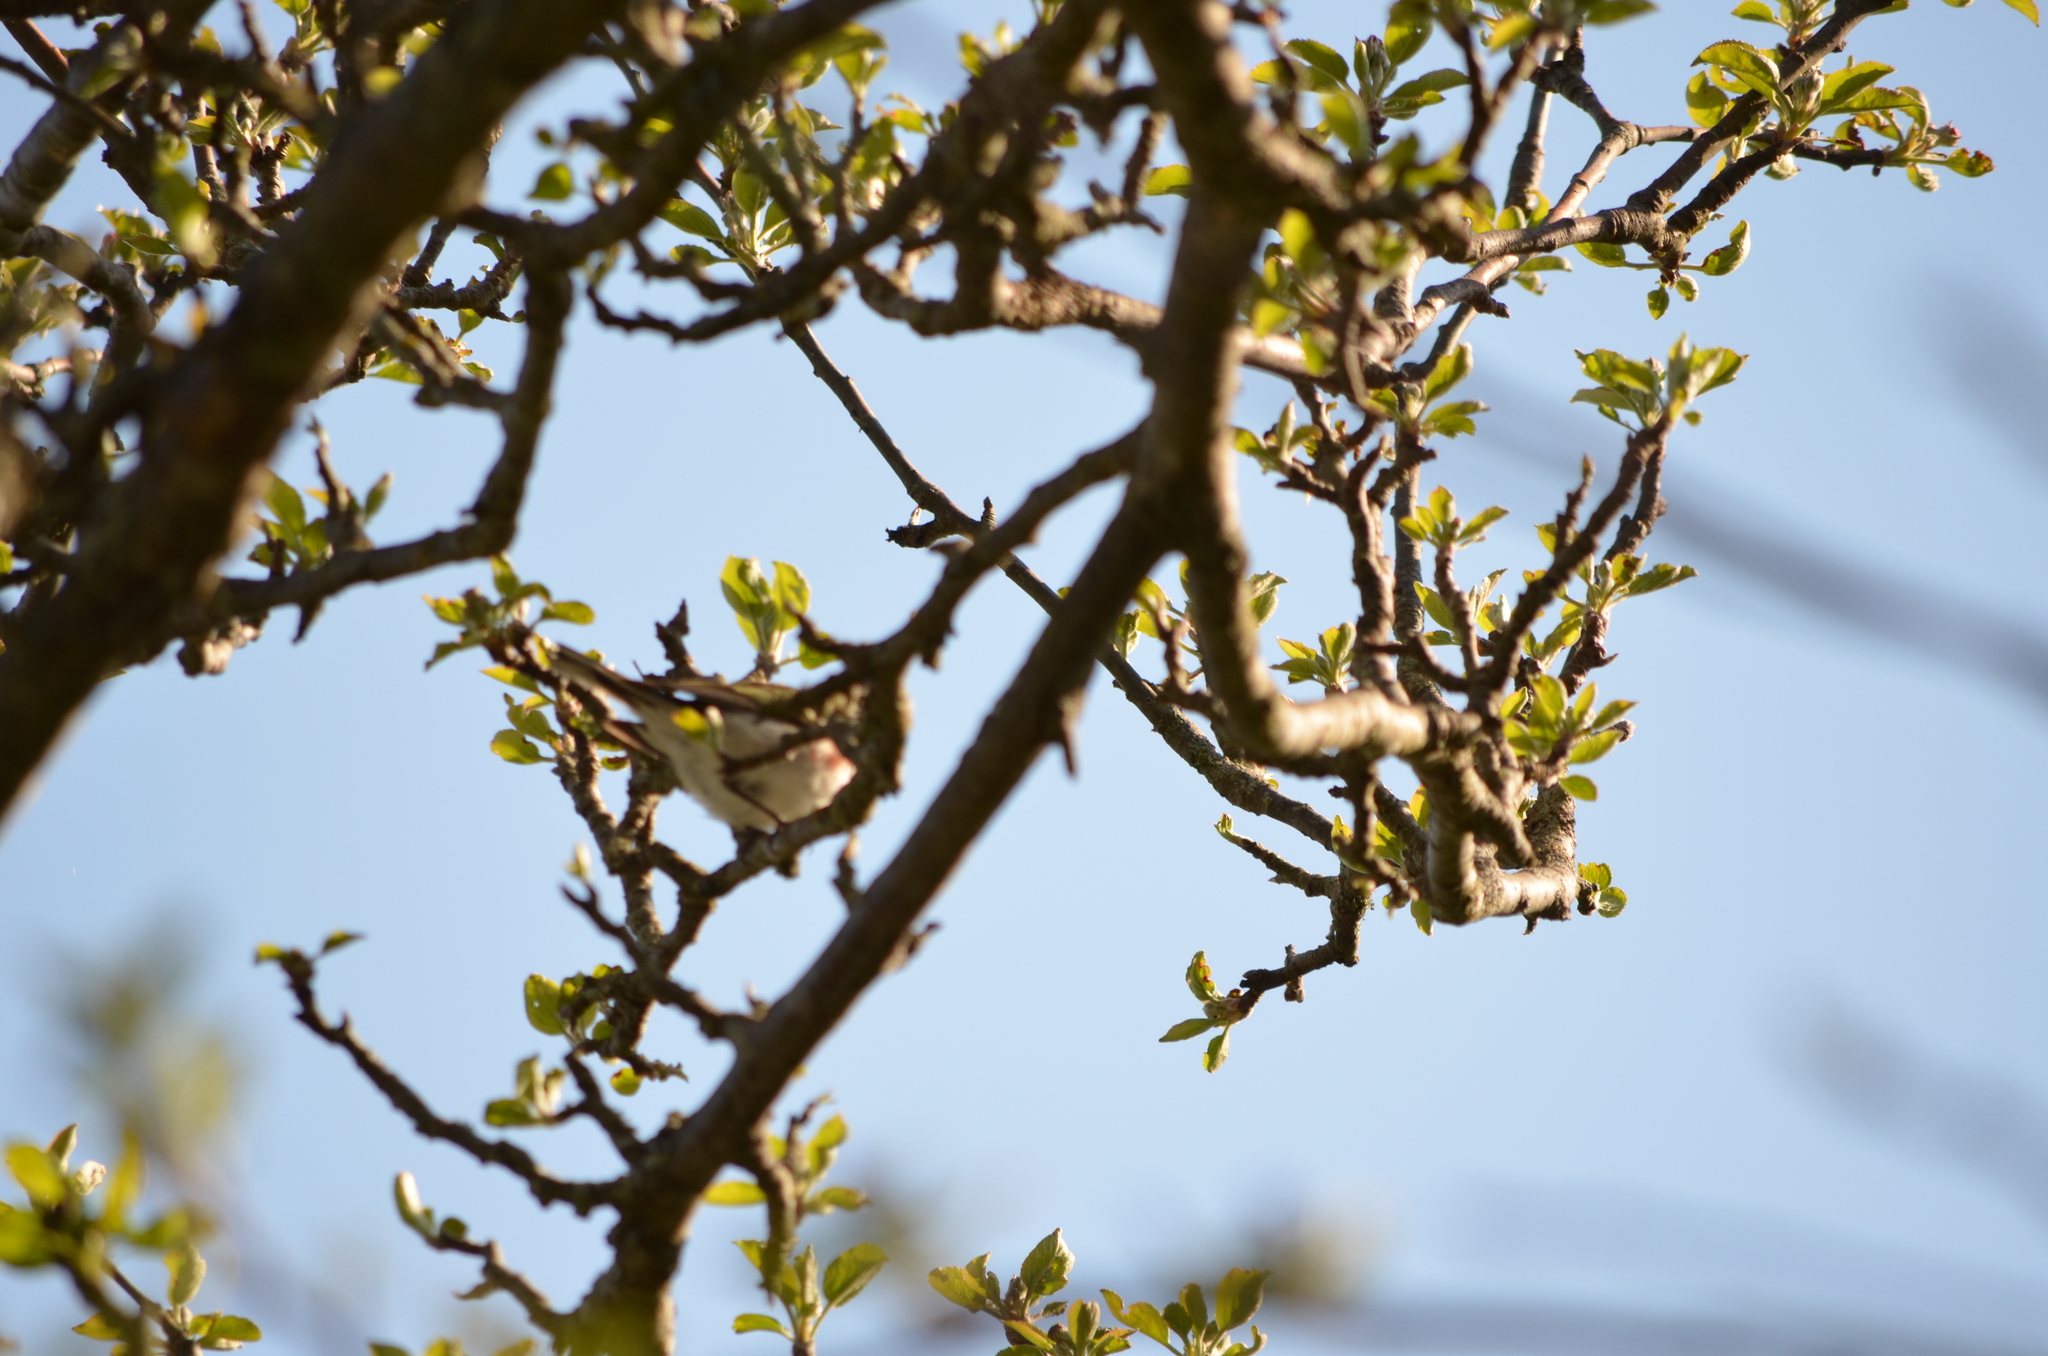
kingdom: Animalia
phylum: Chordata
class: Aves
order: Passeriformes
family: Parulidae
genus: Setophaga
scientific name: Setophaga pensylvanica
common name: Chestnut-sided warbler
